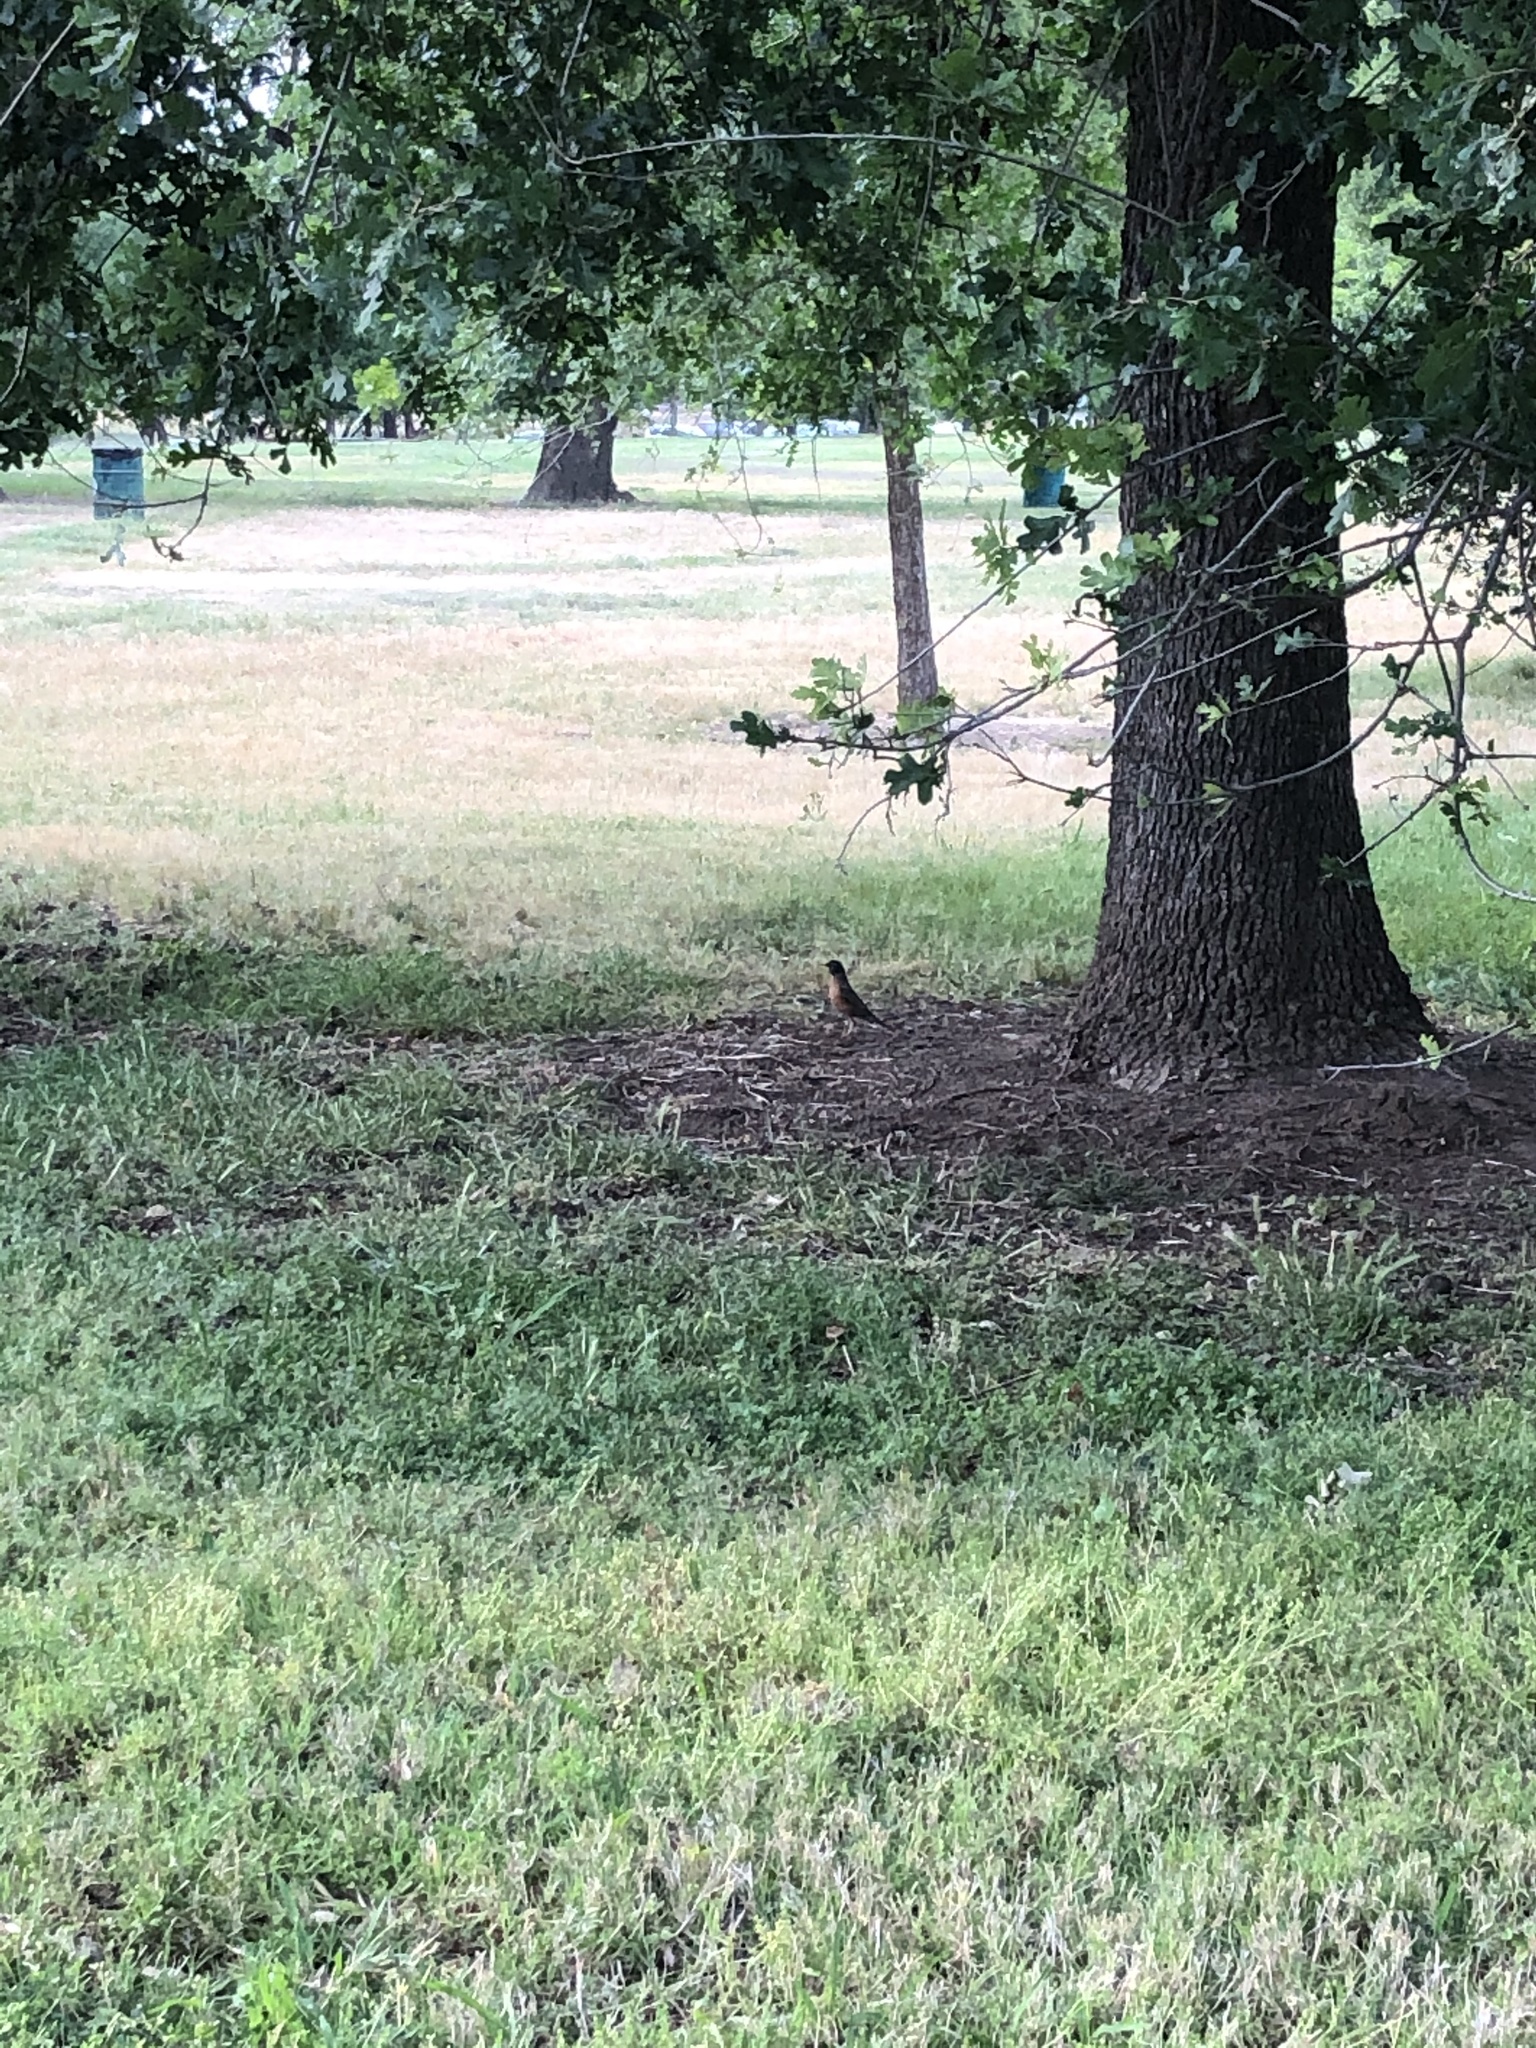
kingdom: Animalia
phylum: Chordata
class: Aves
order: Passeriformes
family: Turdidae
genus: Turdus
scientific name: Turdus migratorius
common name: American robin
